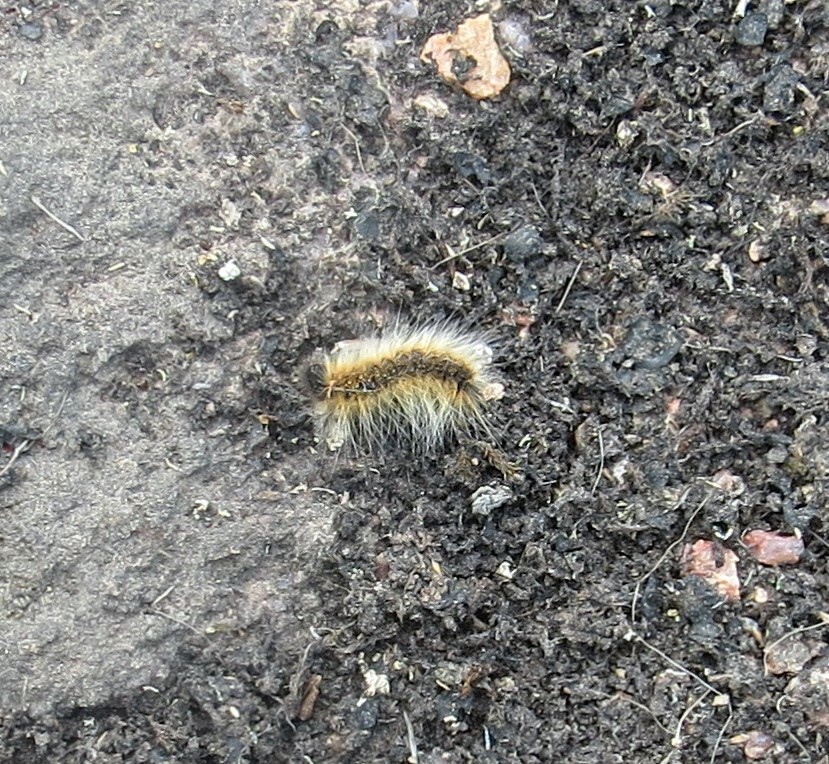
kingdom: Animalia
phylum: Arthropoda
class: Insecta
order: Lepidoptera
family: Lasiocampidae
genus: Malacosoma
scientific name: Malacosoma americana
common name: Eastern tent caterpillar moth
